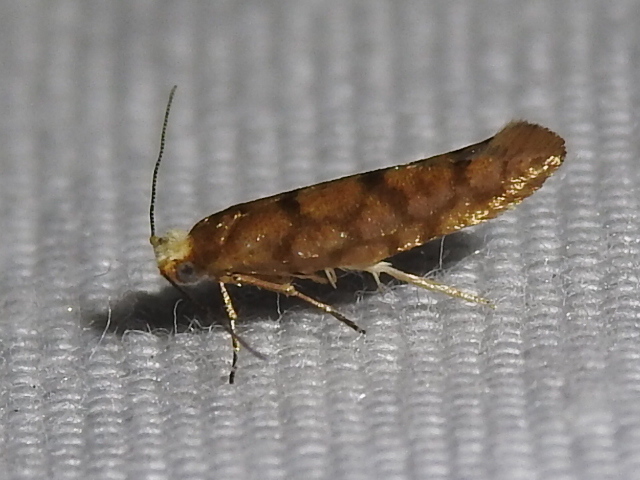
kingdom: Animalia
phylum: Arthropoda
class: Insecta
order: Lepidoptera
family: Argyresthiidae
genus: Argyresthia
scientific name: Argyresthia alternatella
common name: Juniper seed moth
